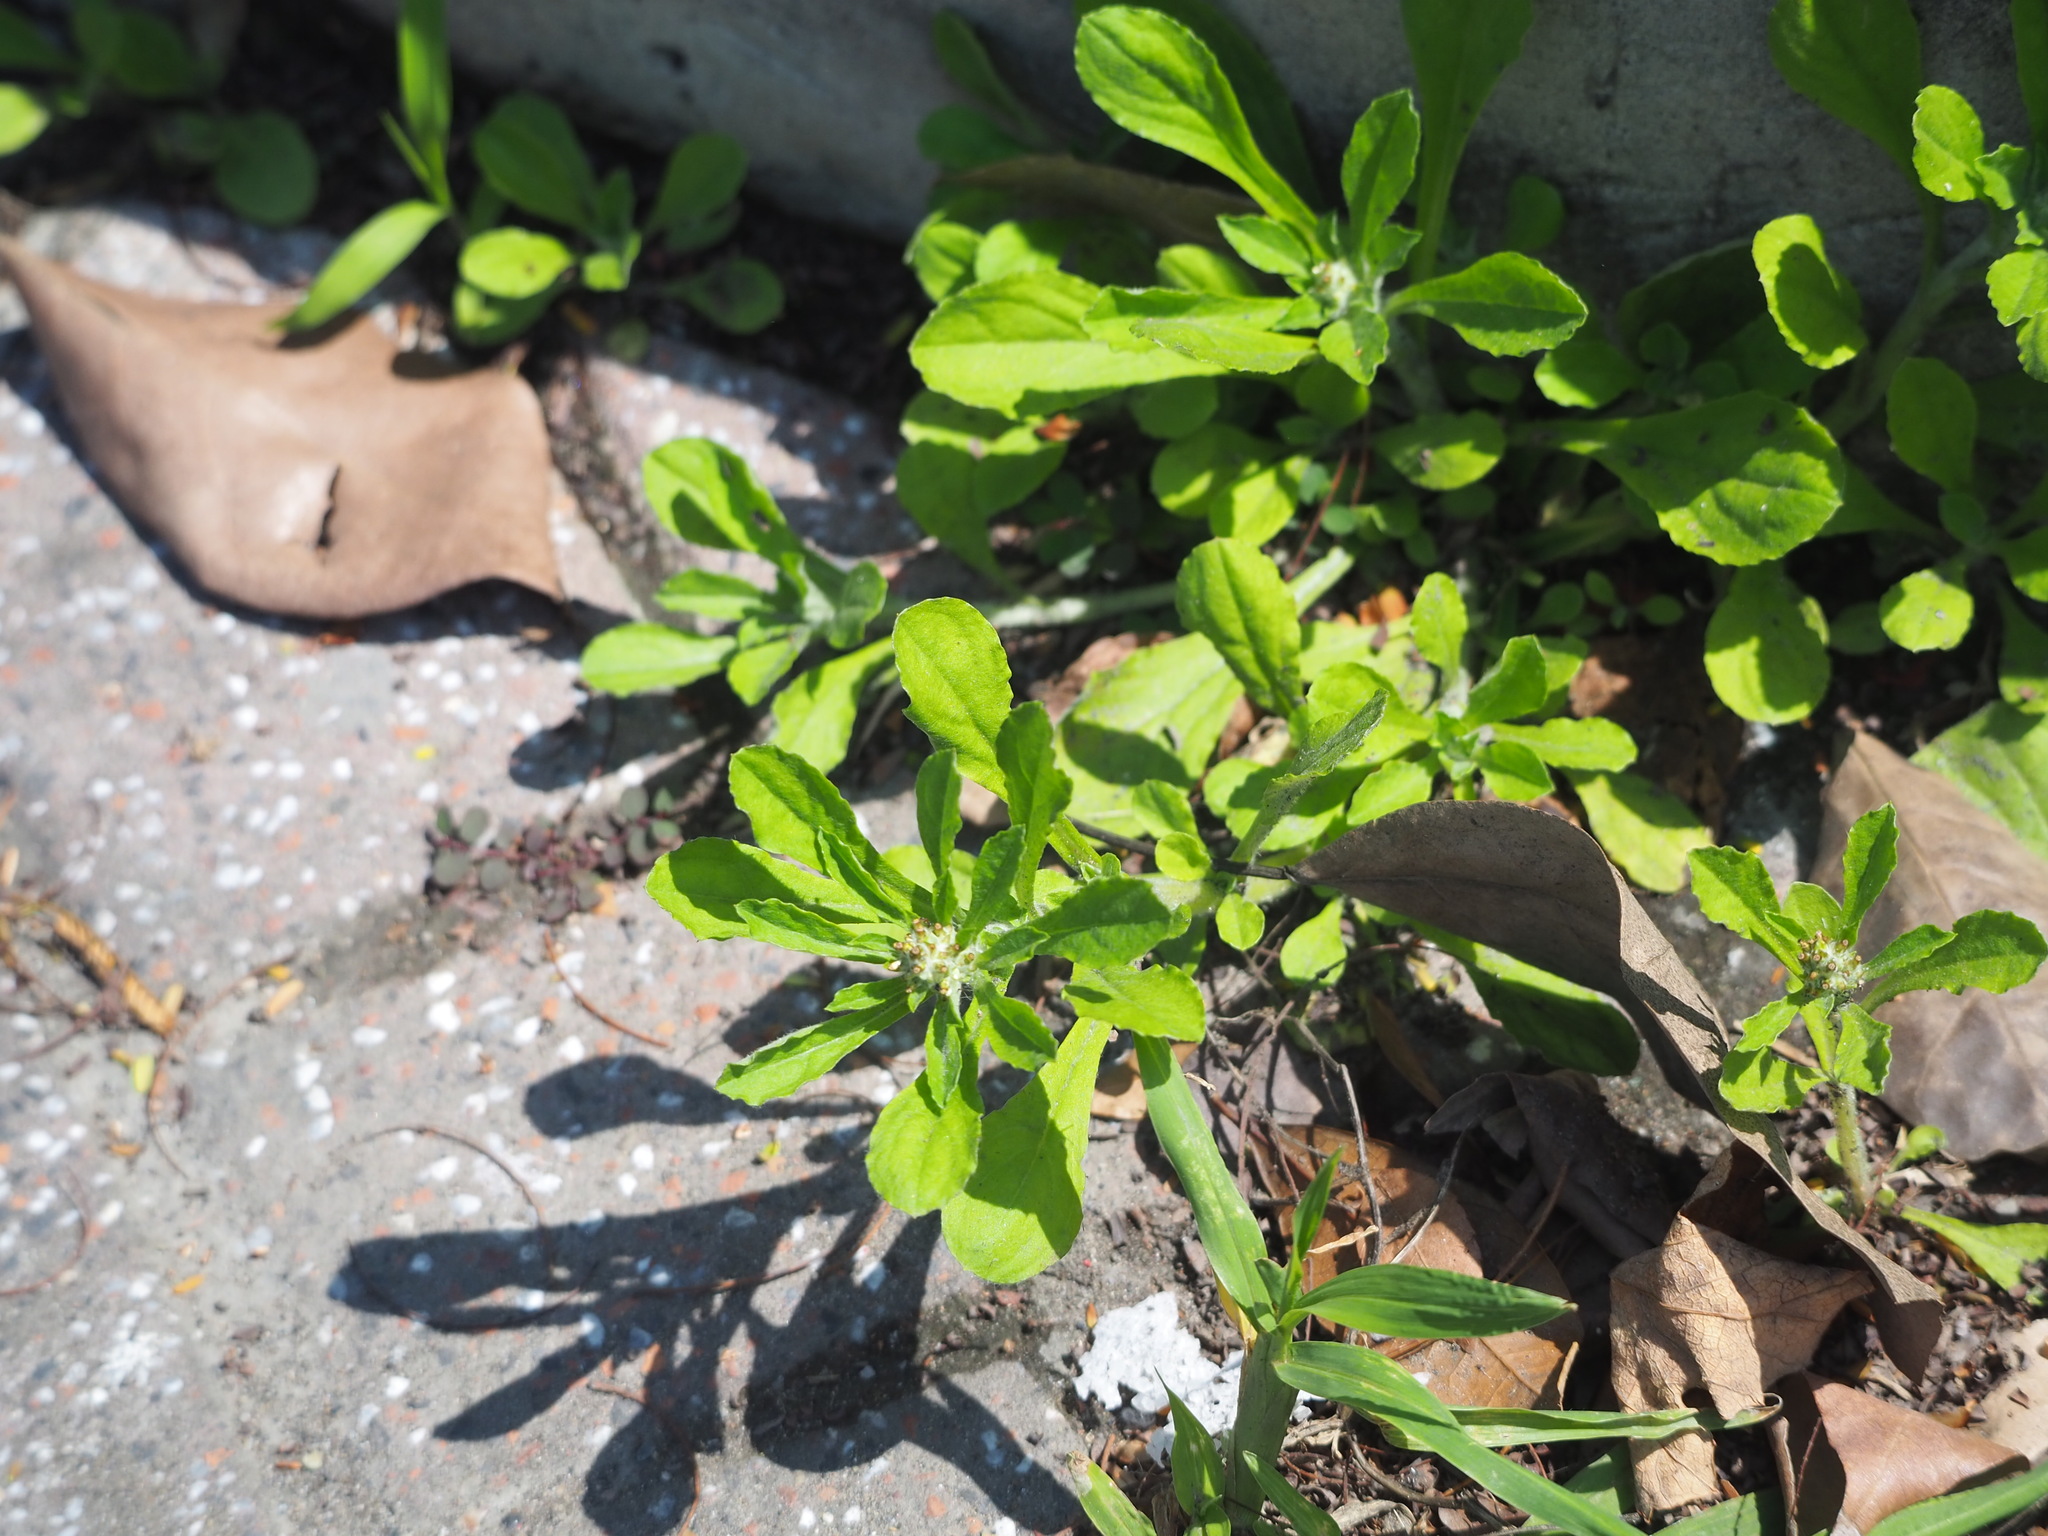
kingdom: Plantae
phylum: Tracheophyta
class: Magnoliopsida
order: Asterales
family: Asteraceae
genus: Gamochaeta
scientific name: Gamochaeta pensylvanica
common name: Pennsylvania everlasting
